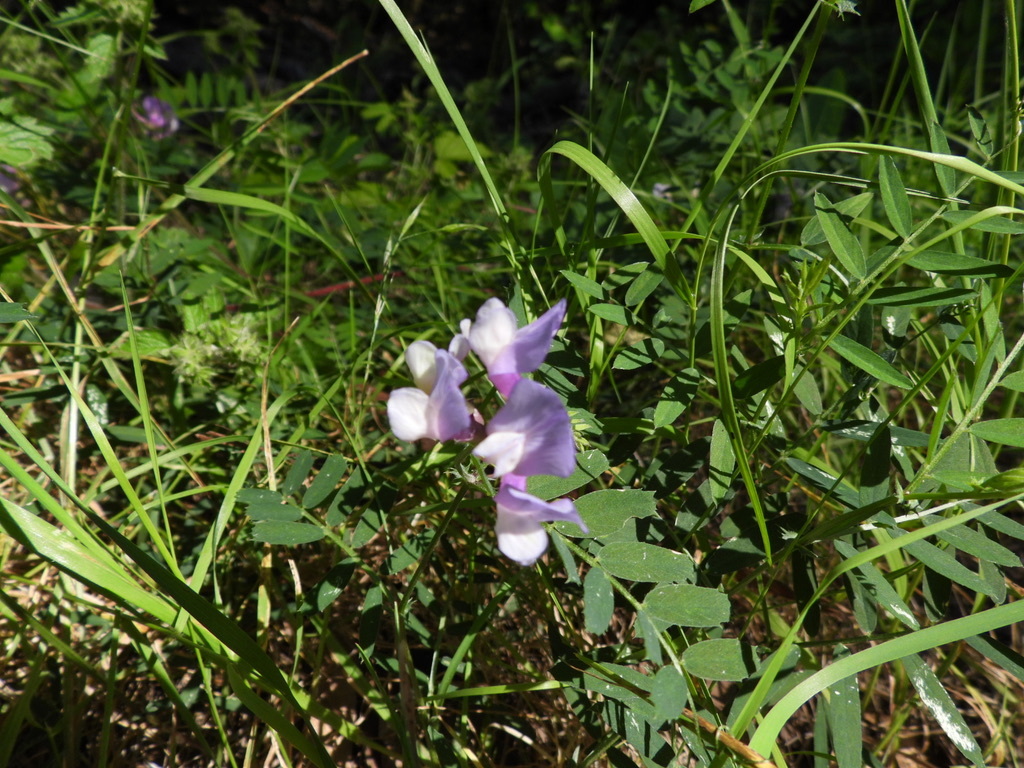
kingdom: Plantae
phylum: Tracheophyta
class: Magnoliopsida
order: Fabales
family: Fabaceae
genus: Vicia
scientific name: Vicia americana
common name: American vetch
